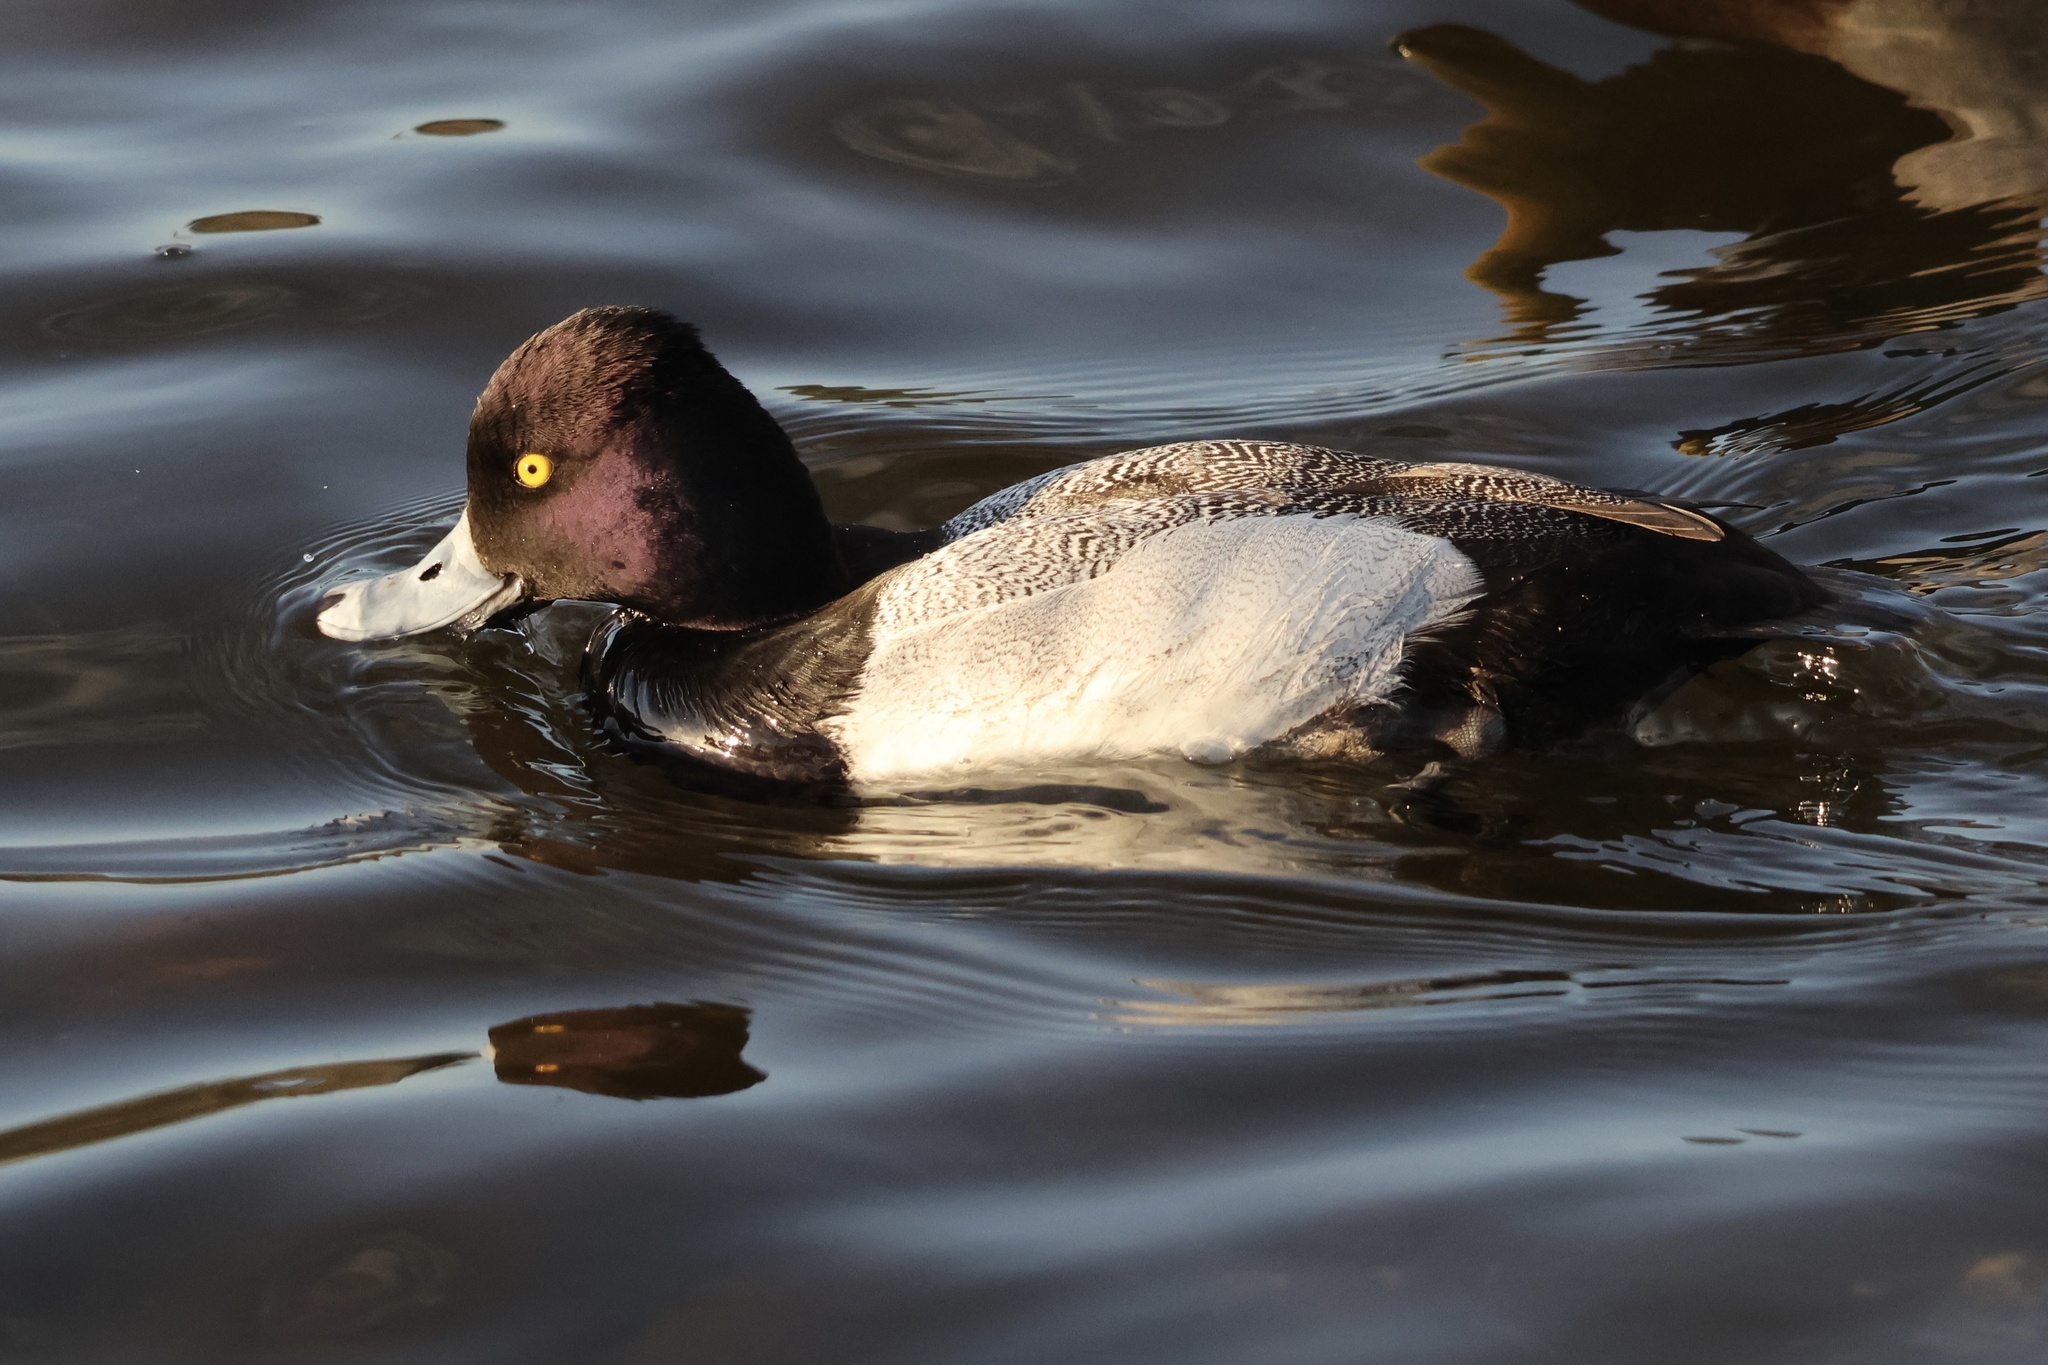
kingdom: Animalia
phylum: Chordata
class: Aves
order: Anseriformes
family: Anatidae
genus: Aythya
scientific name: Aythya affinis
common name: Lesser scaup
